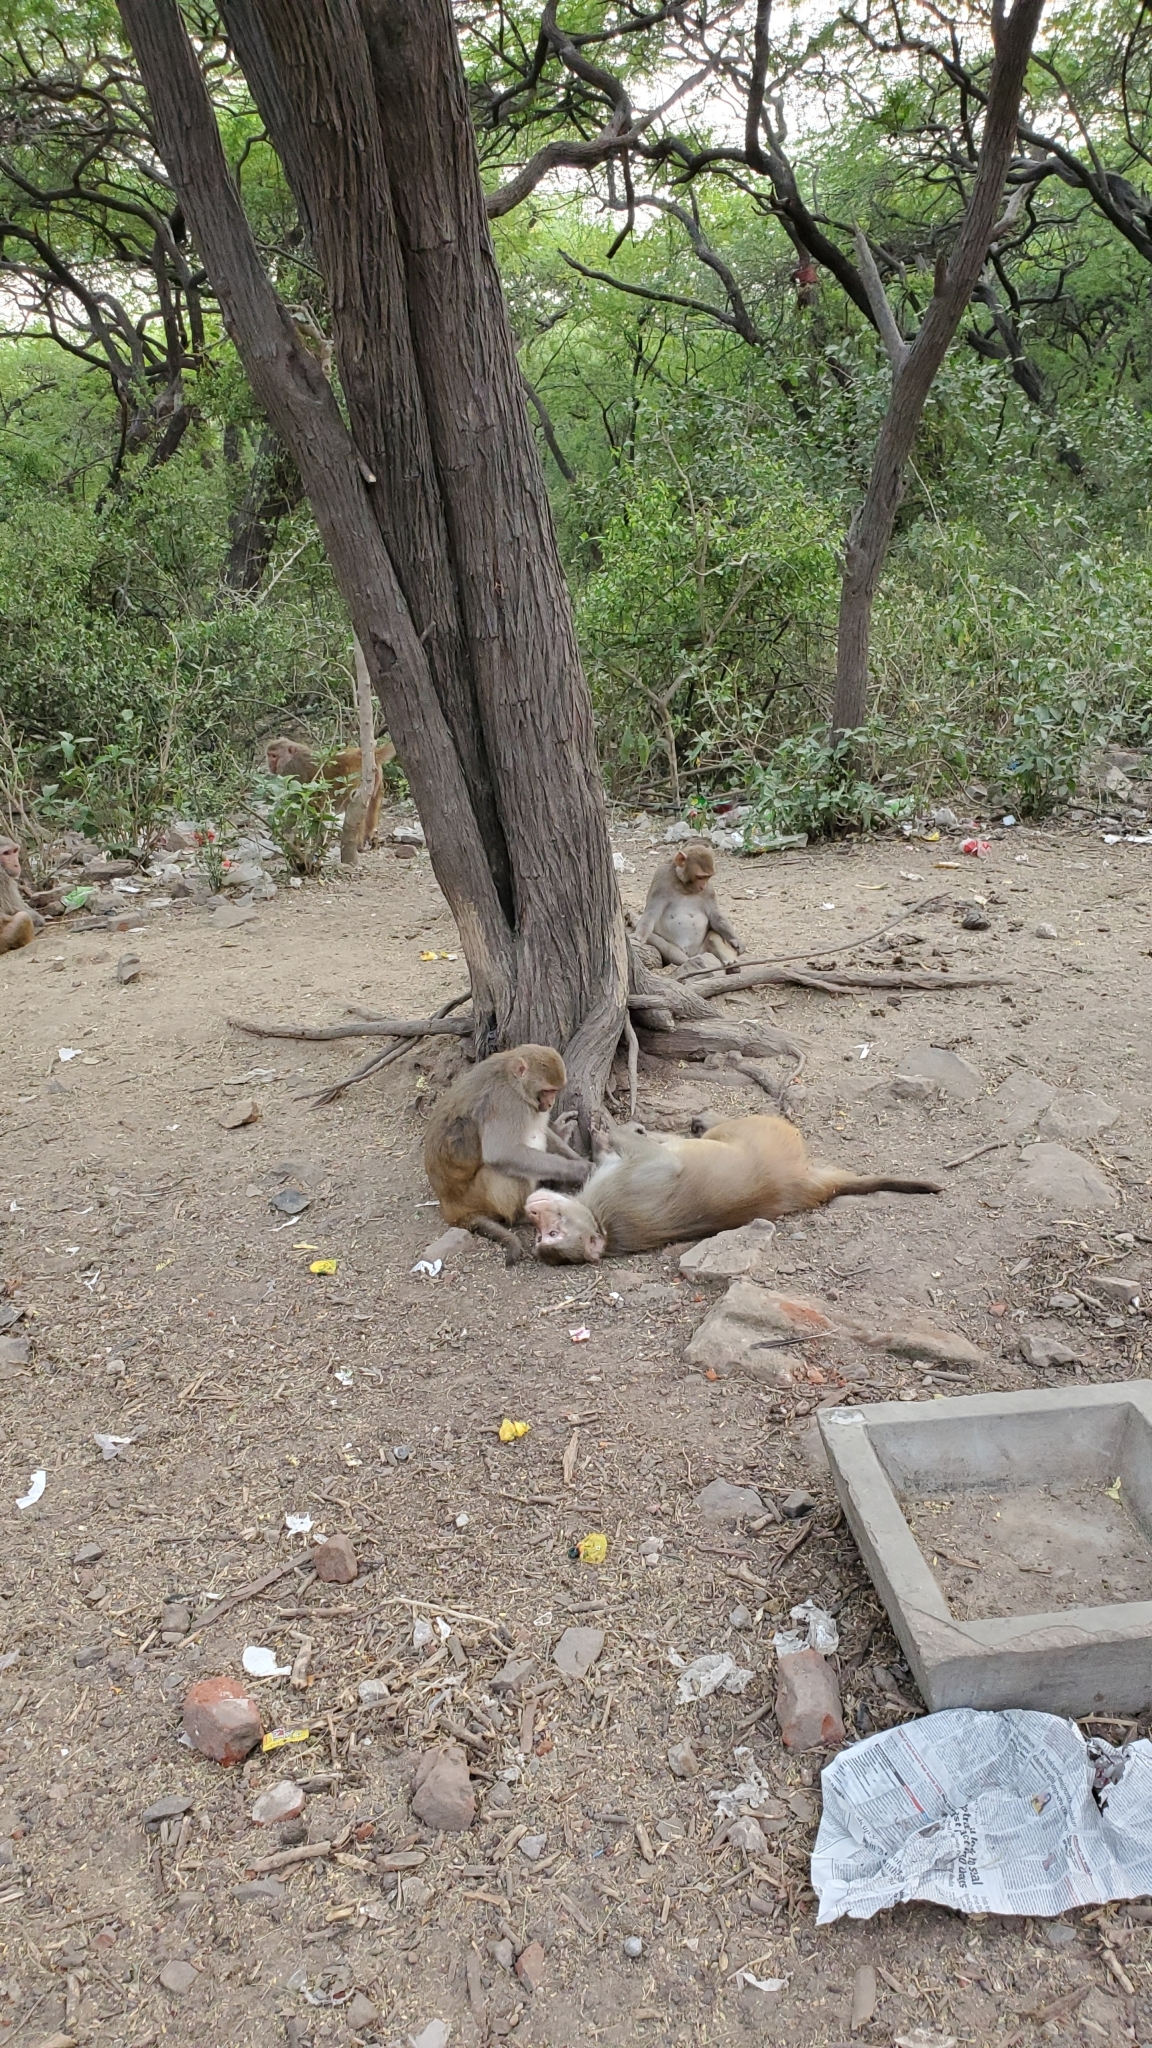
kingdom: Animalia
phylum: Chordata
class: Mammalia
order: Primates
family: Cercopithecidae
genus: Macaca
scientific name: Macaca mulatta
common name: Rhesus monkey
